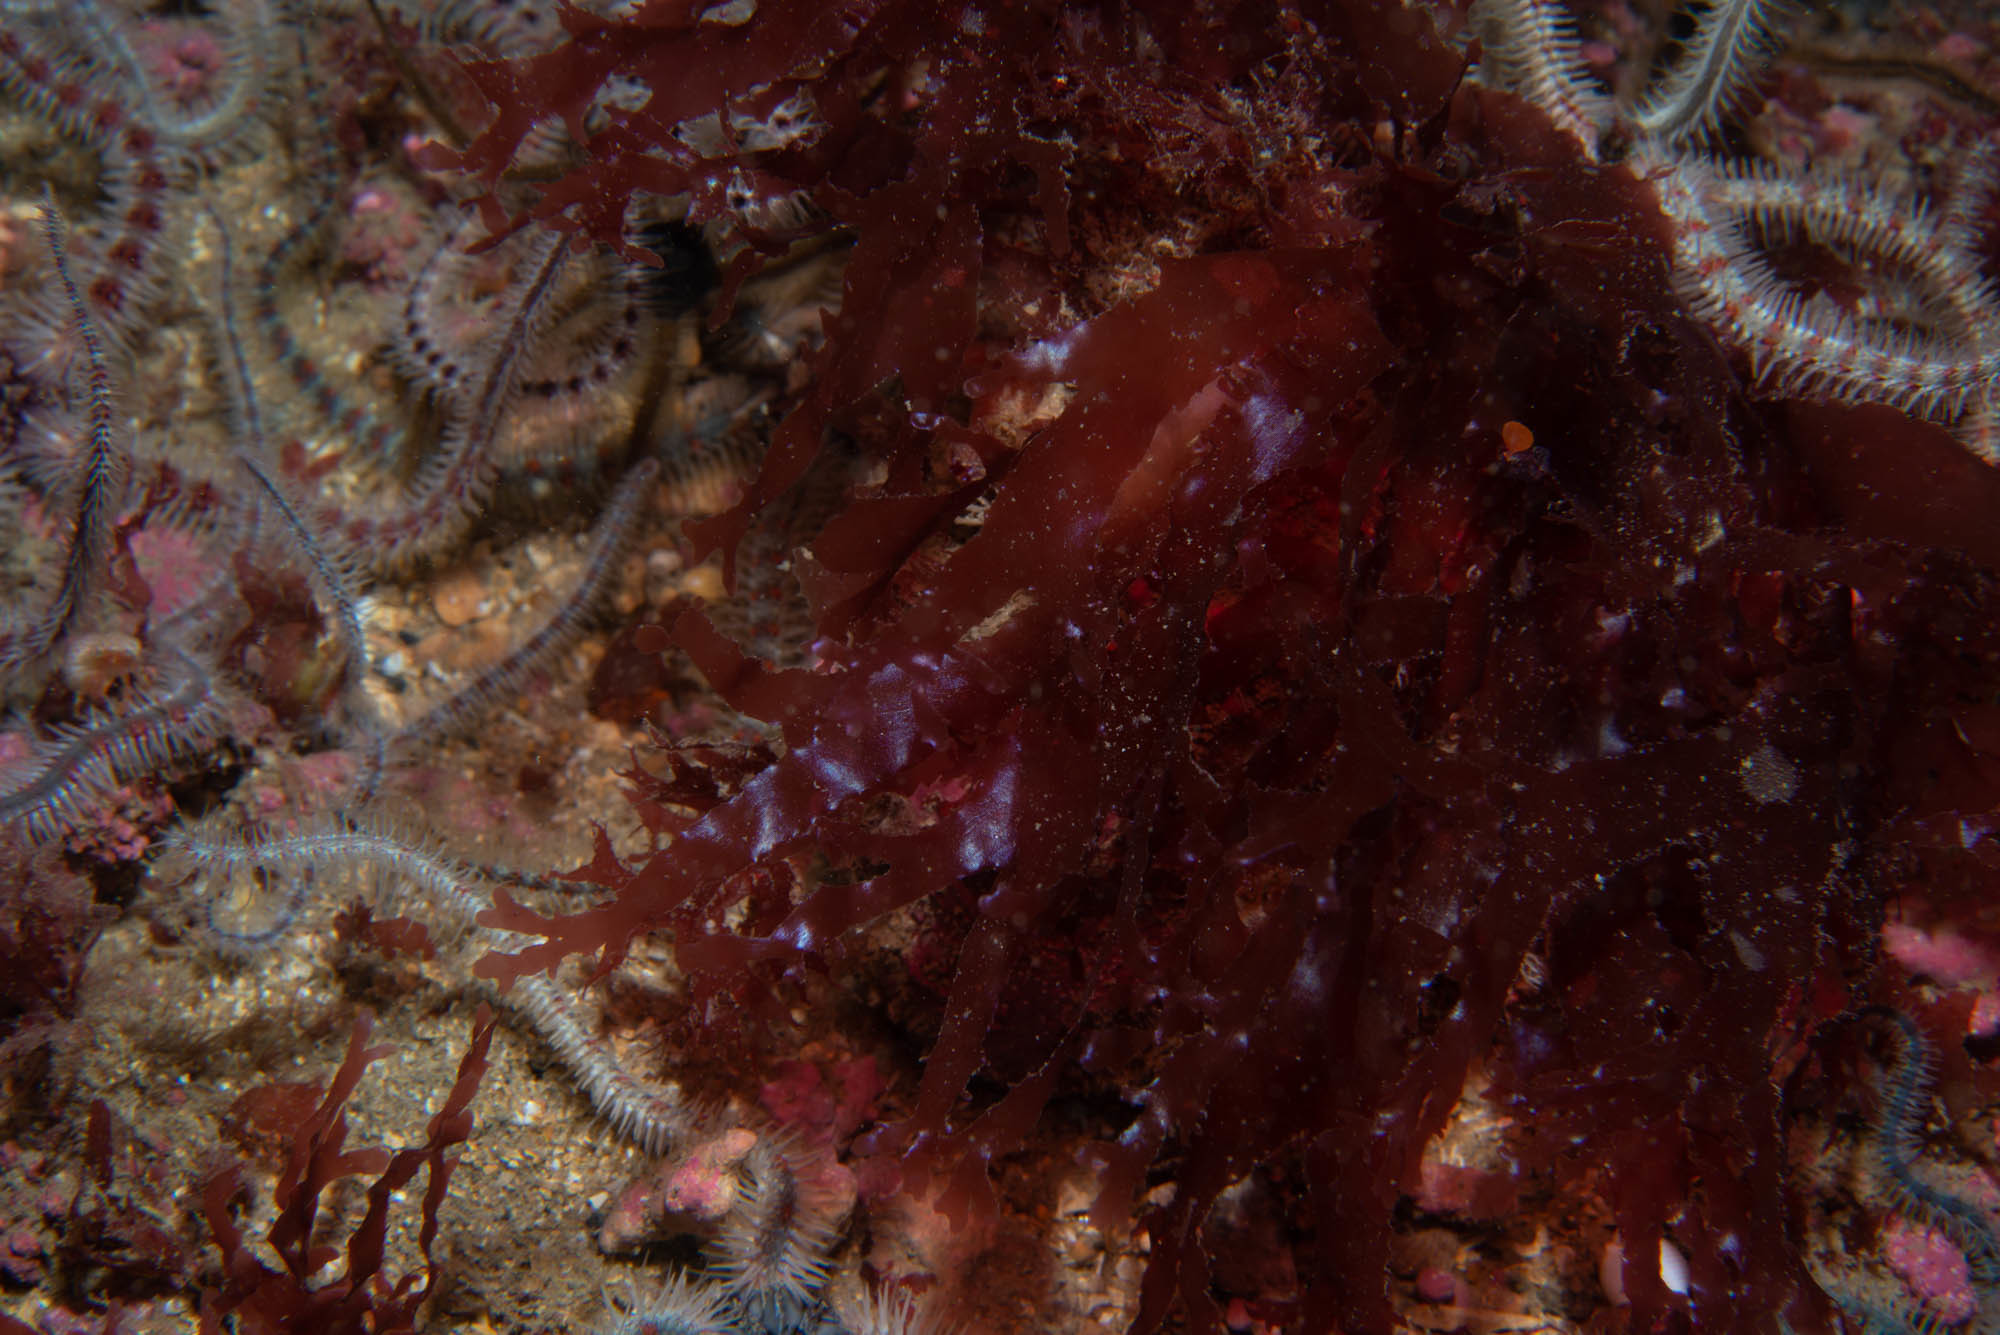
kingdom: Plantae
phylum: Rhodophyta
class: Florideophyceae
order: Ceramiales
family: Delesseriaceae
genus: Cryptopleura
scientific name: Cryptopleura ramosa
